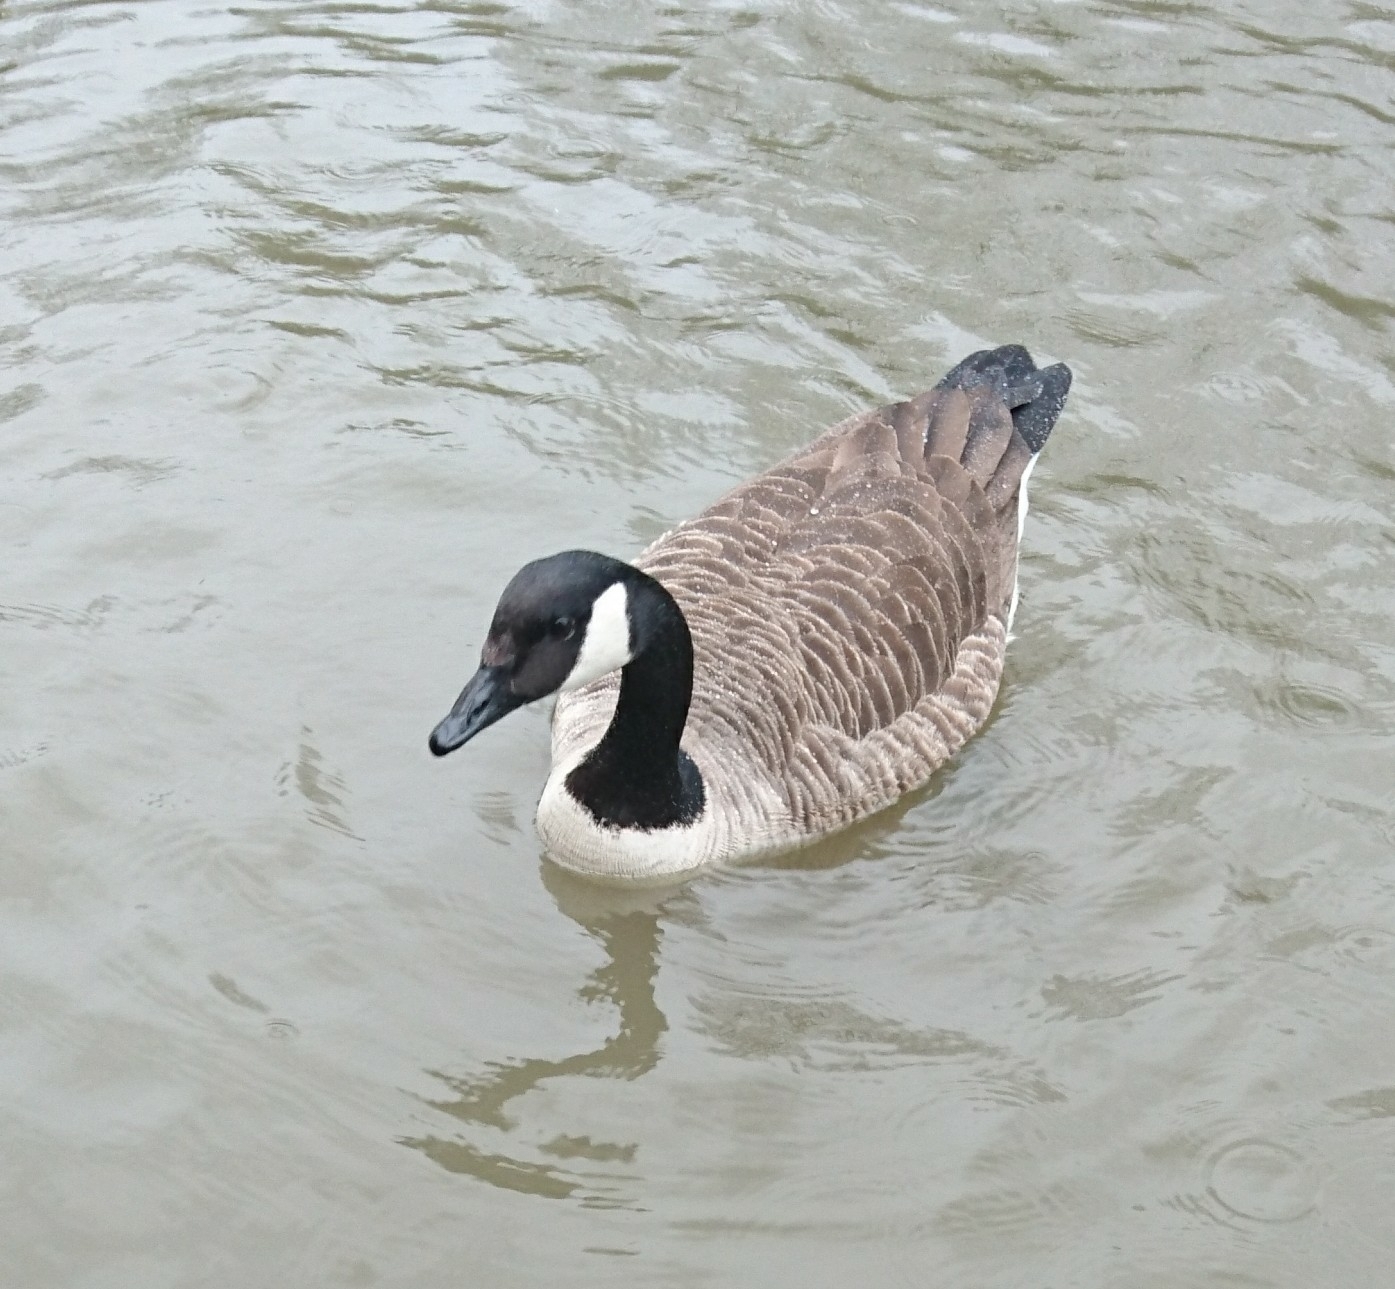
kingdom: Animalia
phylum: Chordata
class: Aves
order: Anseriformes
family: Anatidae
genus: Branta
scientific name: Branta canadensis
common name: Canada goose
